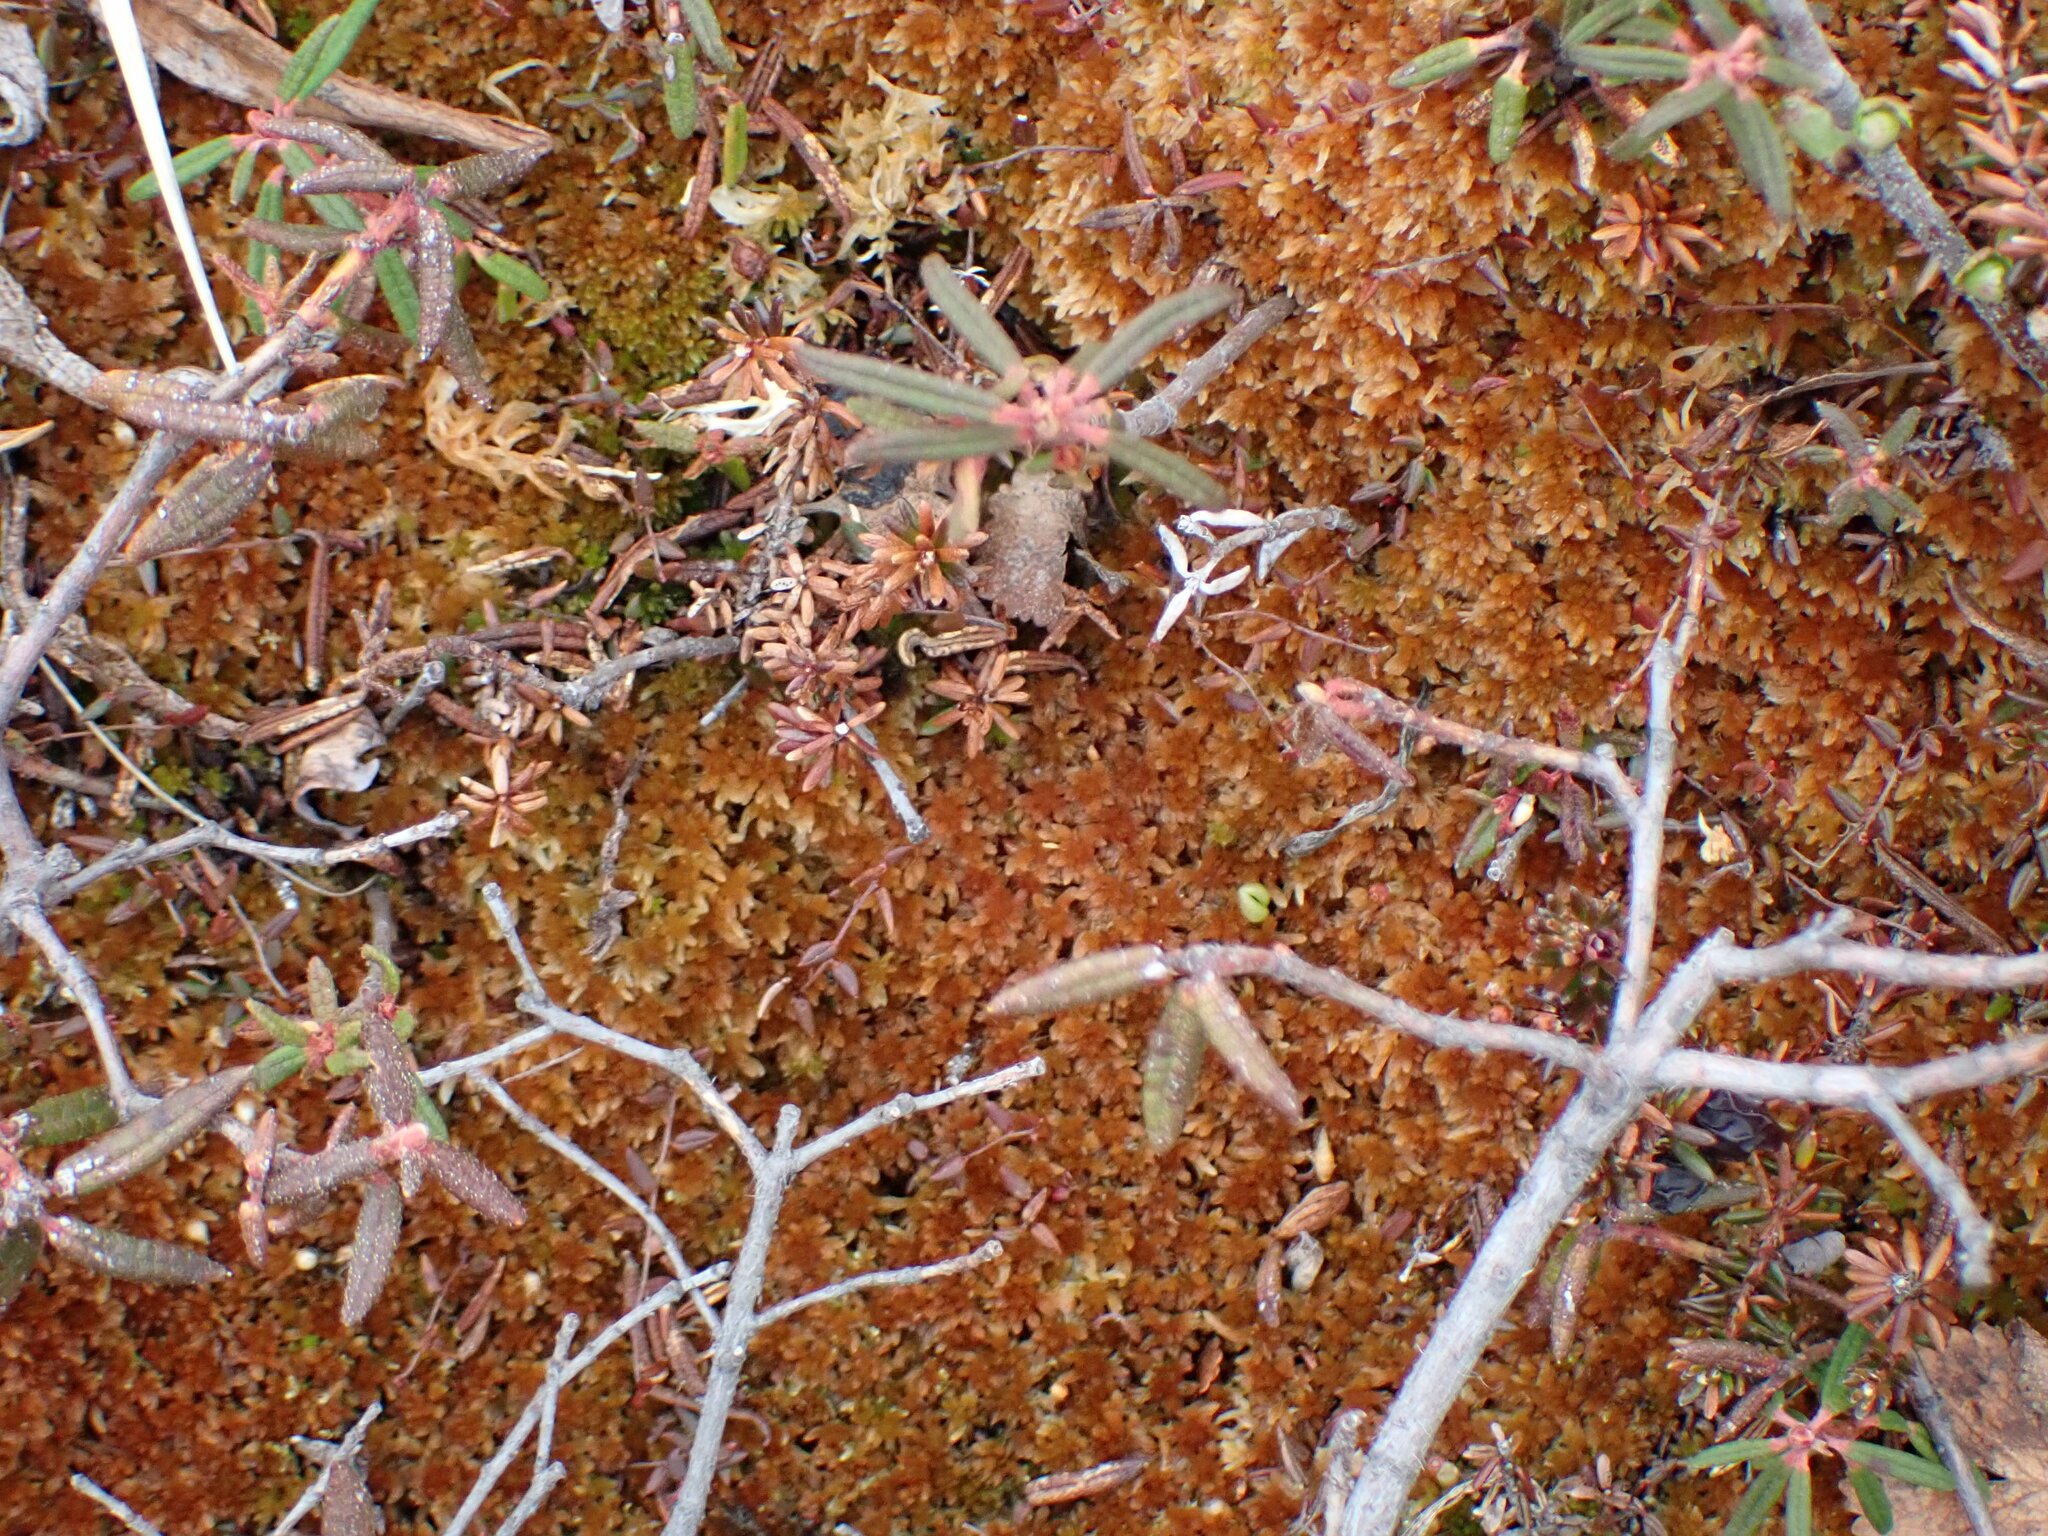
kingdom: Plantae
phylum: Bryophyta
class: Sphagnopsida
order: Sphagnales
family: Sphagnaceae
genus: Sphagnum
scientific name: Sphagnum fuscum
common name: Brown peat moss
